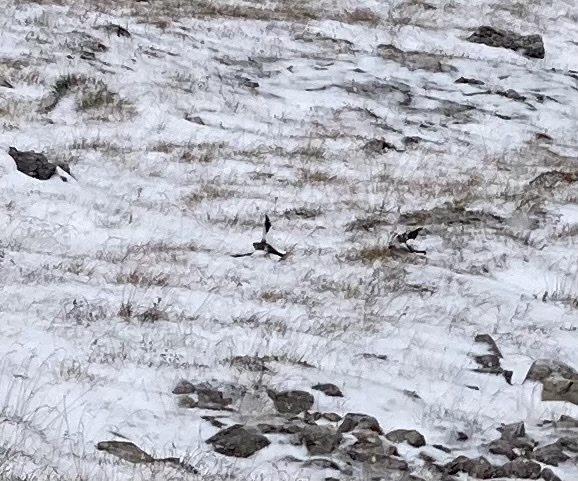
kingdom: Animalia
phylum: Chordata
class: Aves
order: Passeriformes
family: Passeridae
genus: Montifringilla
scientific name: Montifringilla nivalis
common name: White-winged snowfinch
